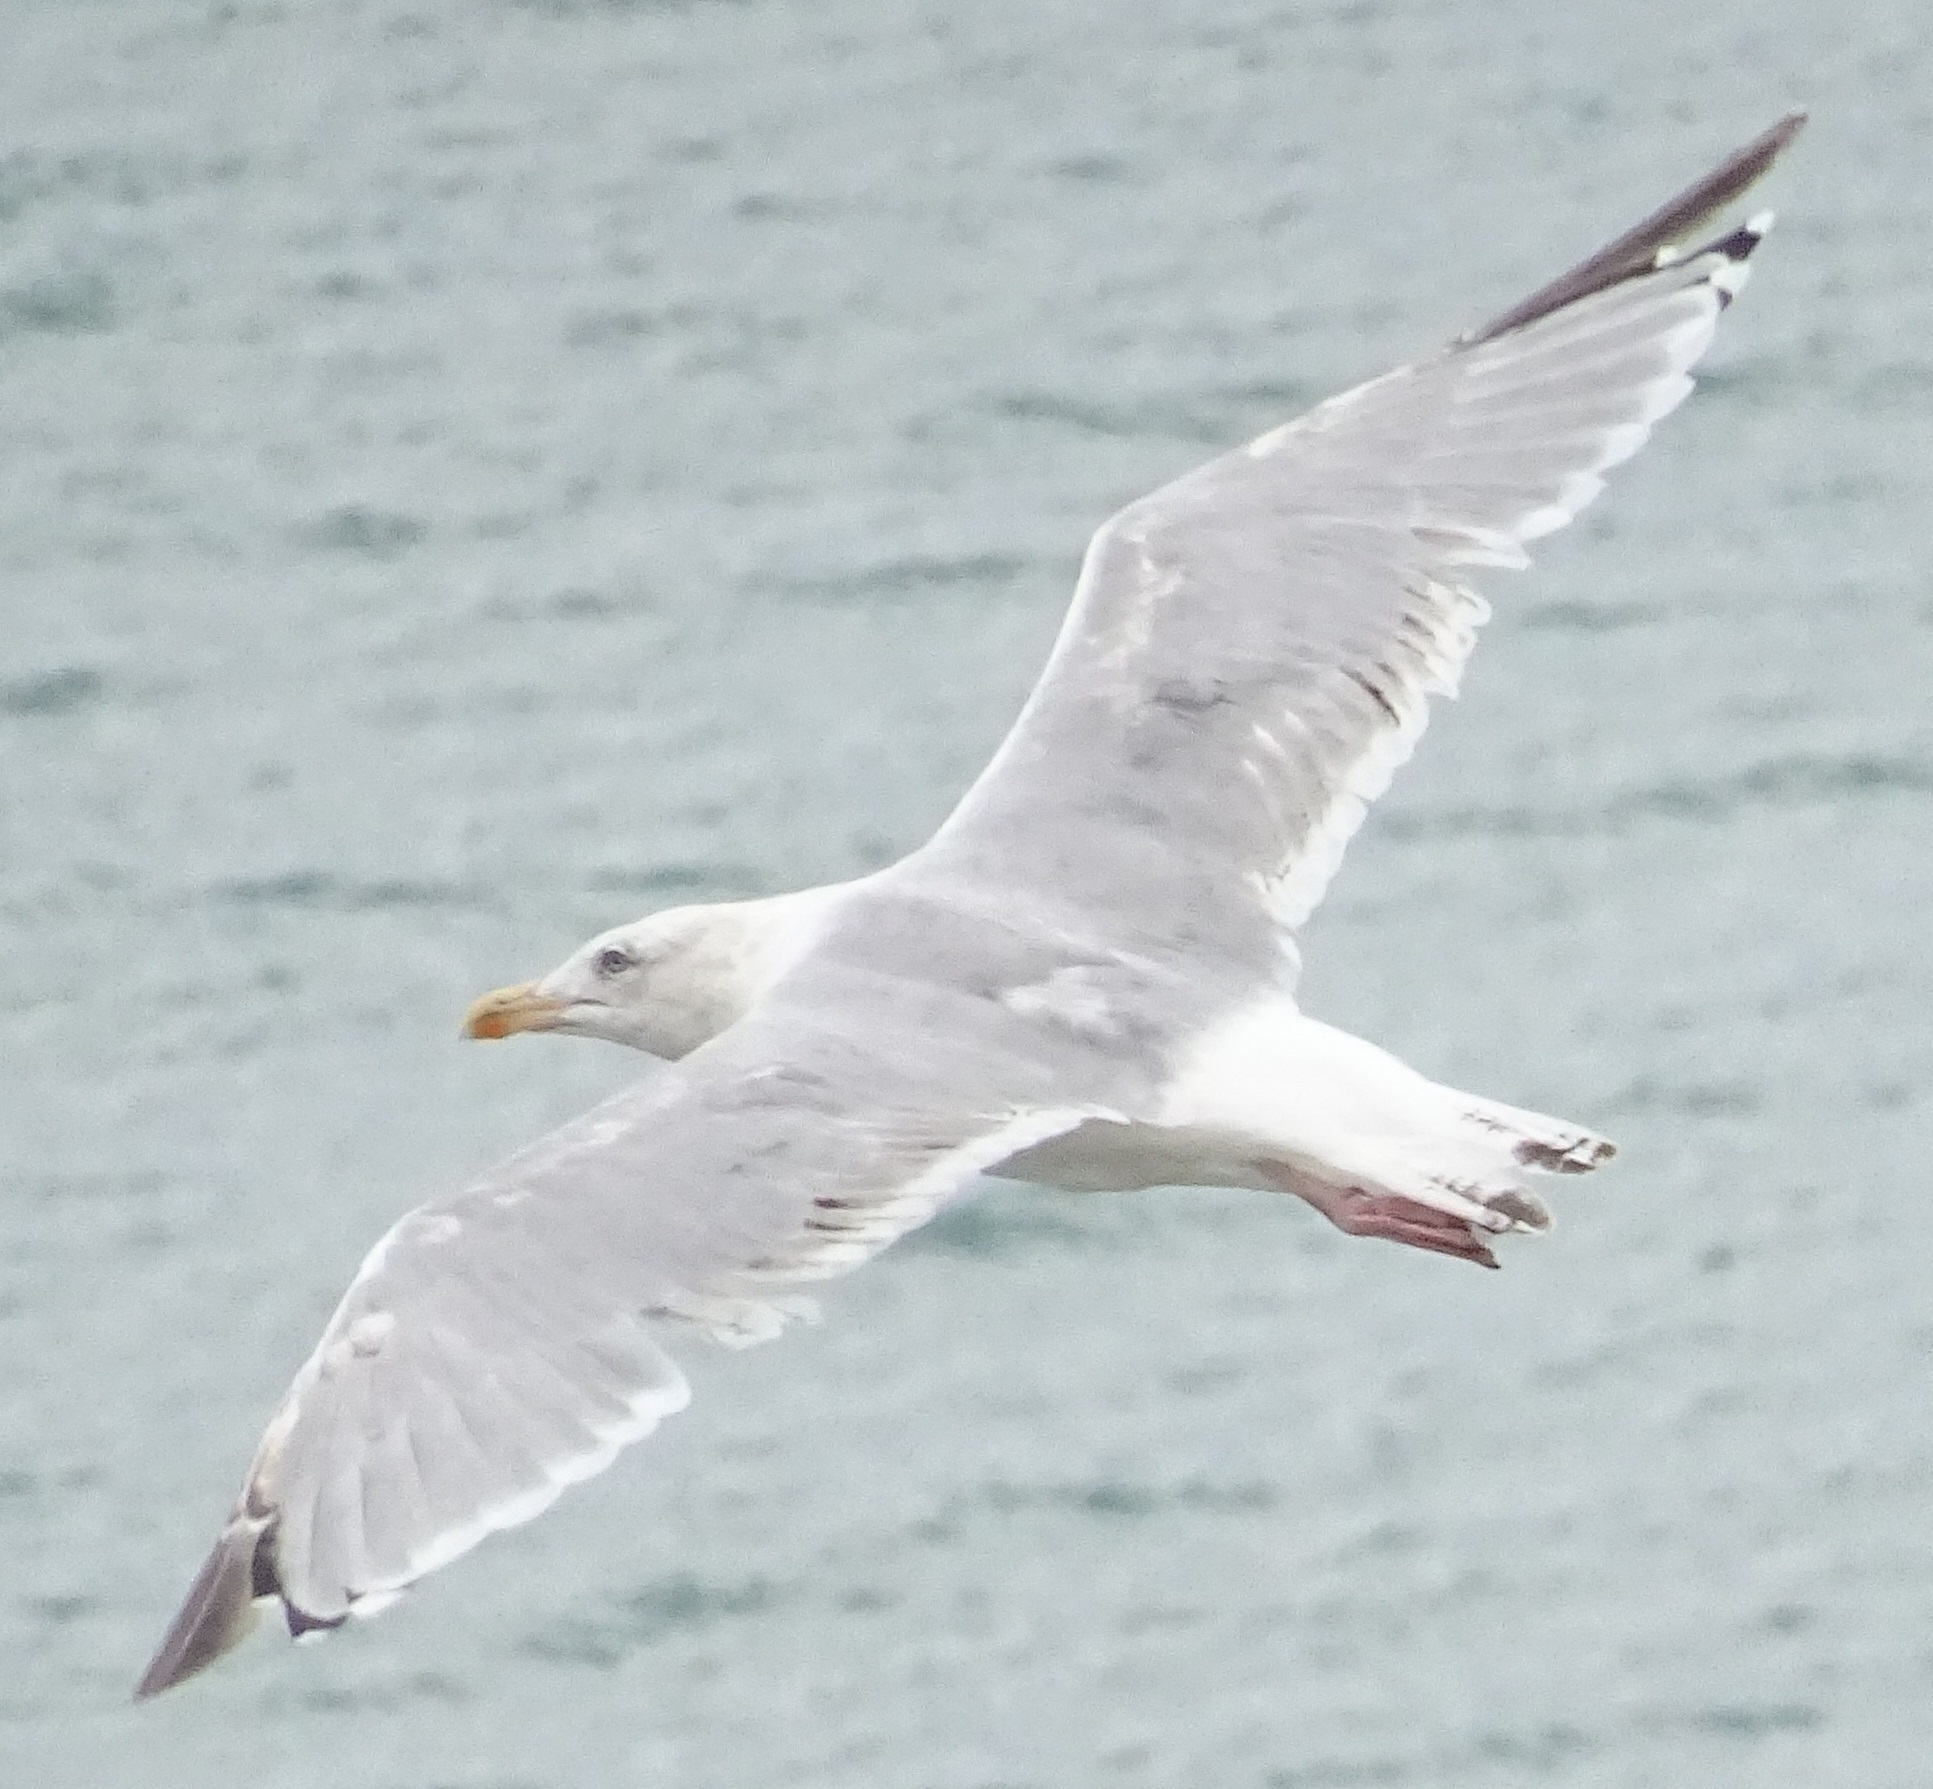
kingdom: Animalia
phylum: Chordata
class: Aves
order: Charadriiformes
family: Laridae
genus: Larus
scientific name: Larus argentatus
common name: Herring gull
